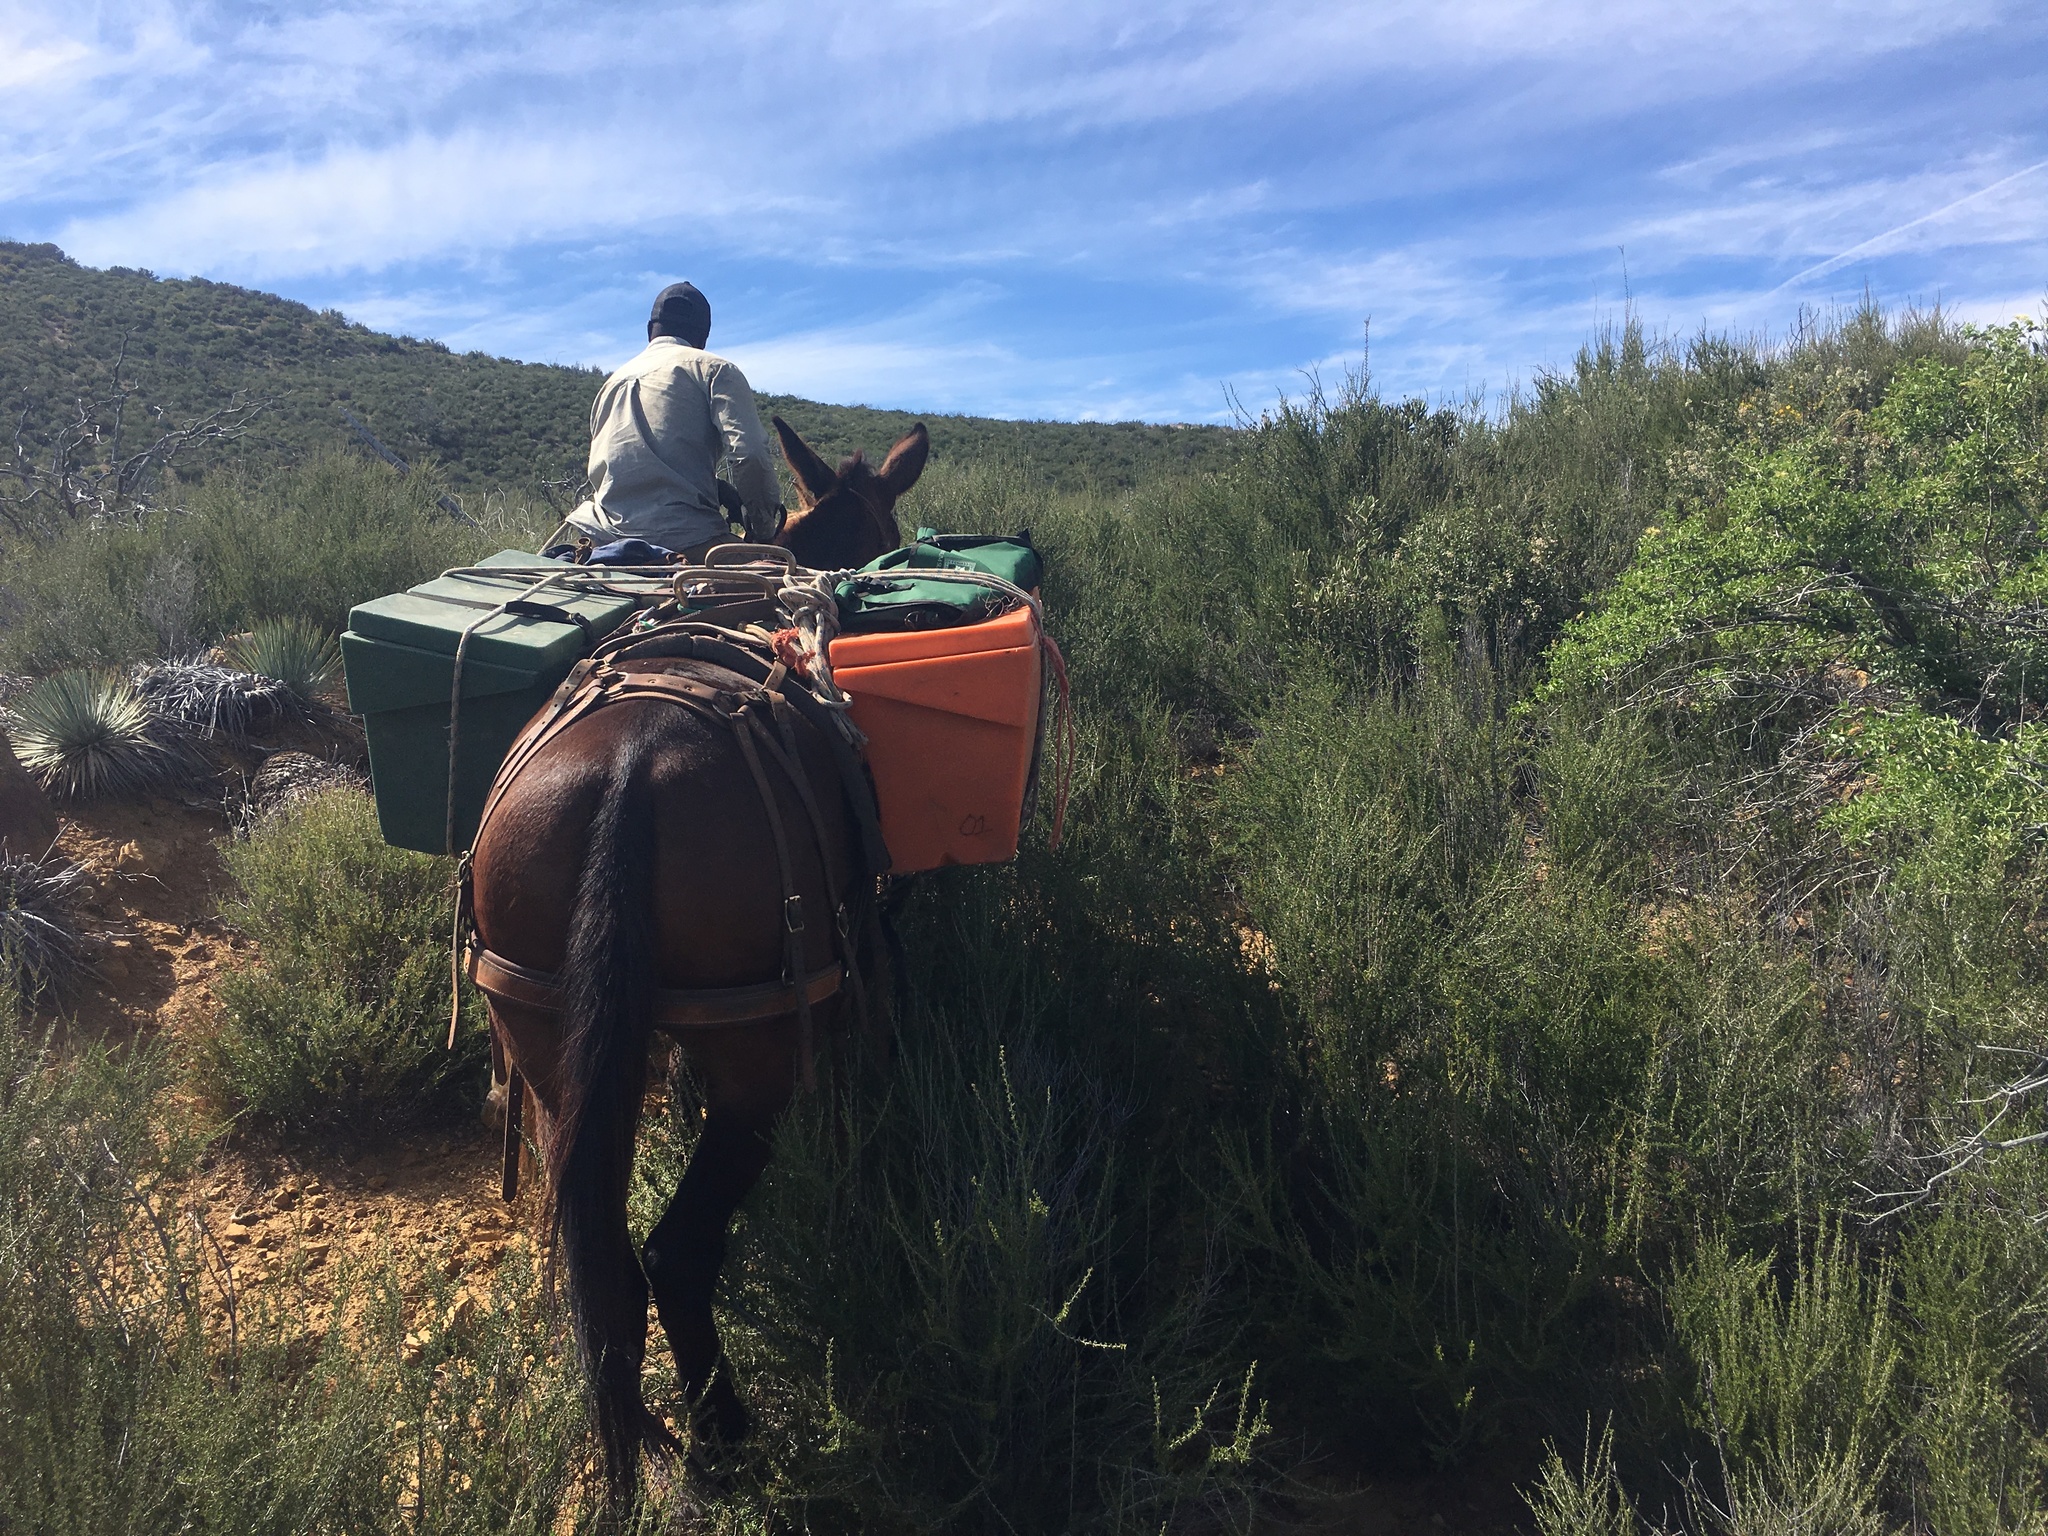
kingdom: Plantae
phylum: Tracheophyta
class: Magnoliopsida
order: Rosales
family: Rosaceae
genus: Adenostoma
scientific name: Adenostoma fasciculatum
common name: Chamise
